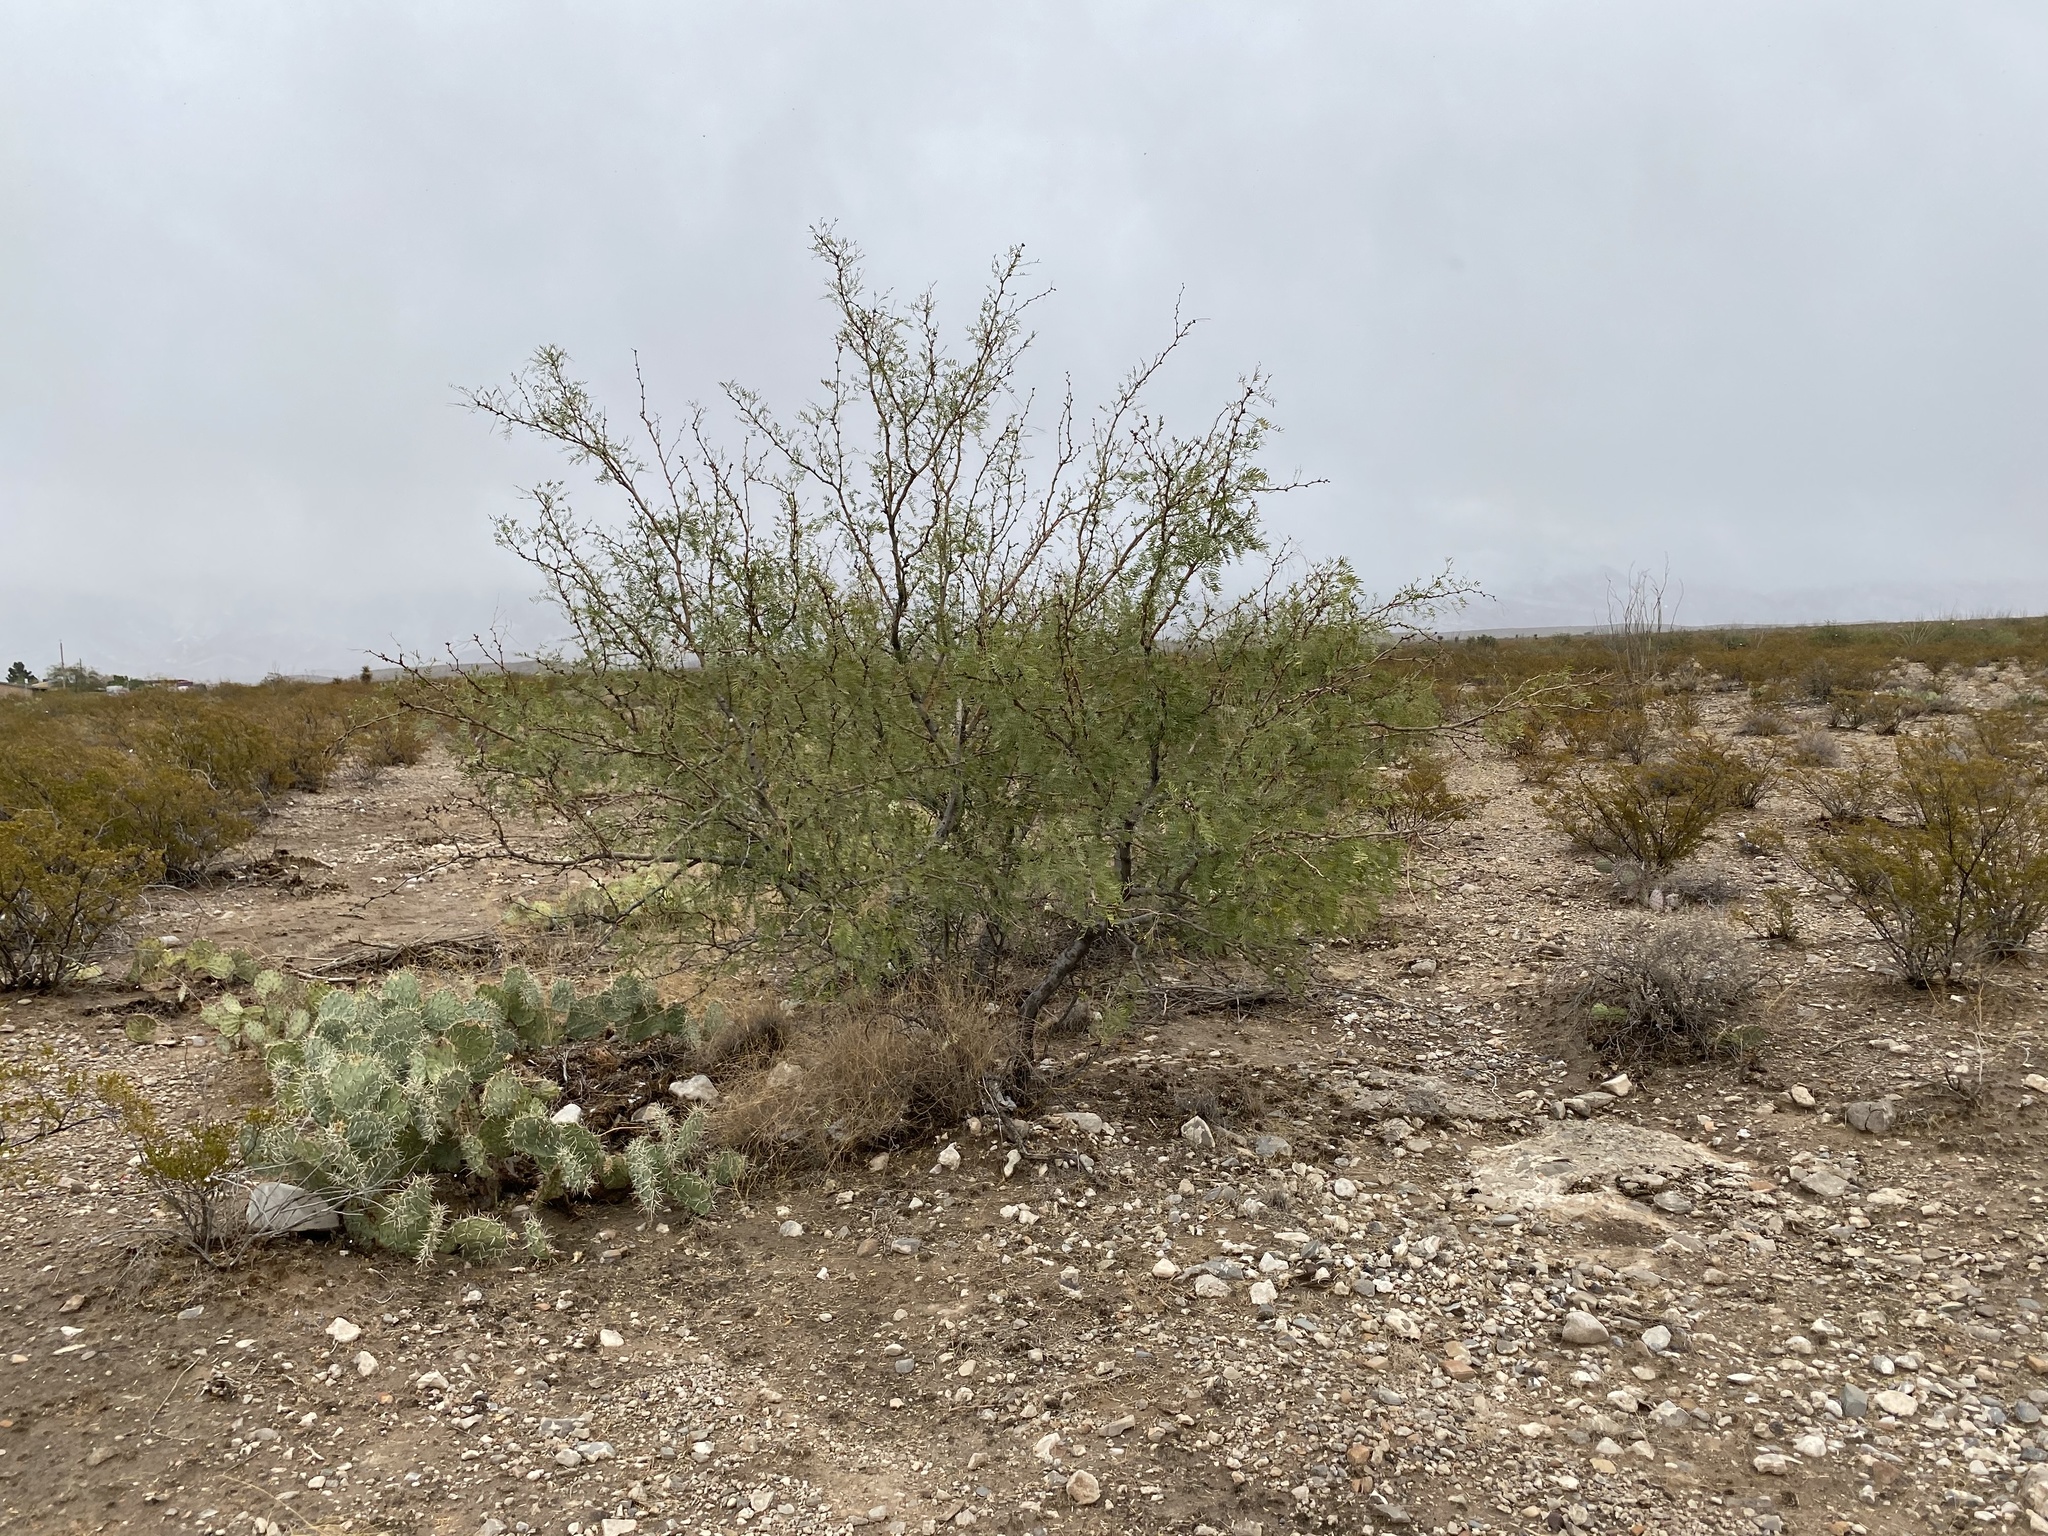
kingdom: Plantae
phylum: Tracheophyta
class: Magnoliopsida
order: Fabales
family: Fabaceae
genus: Prosopis
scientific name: Prosopis glandulosa
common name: Honey mesquite
